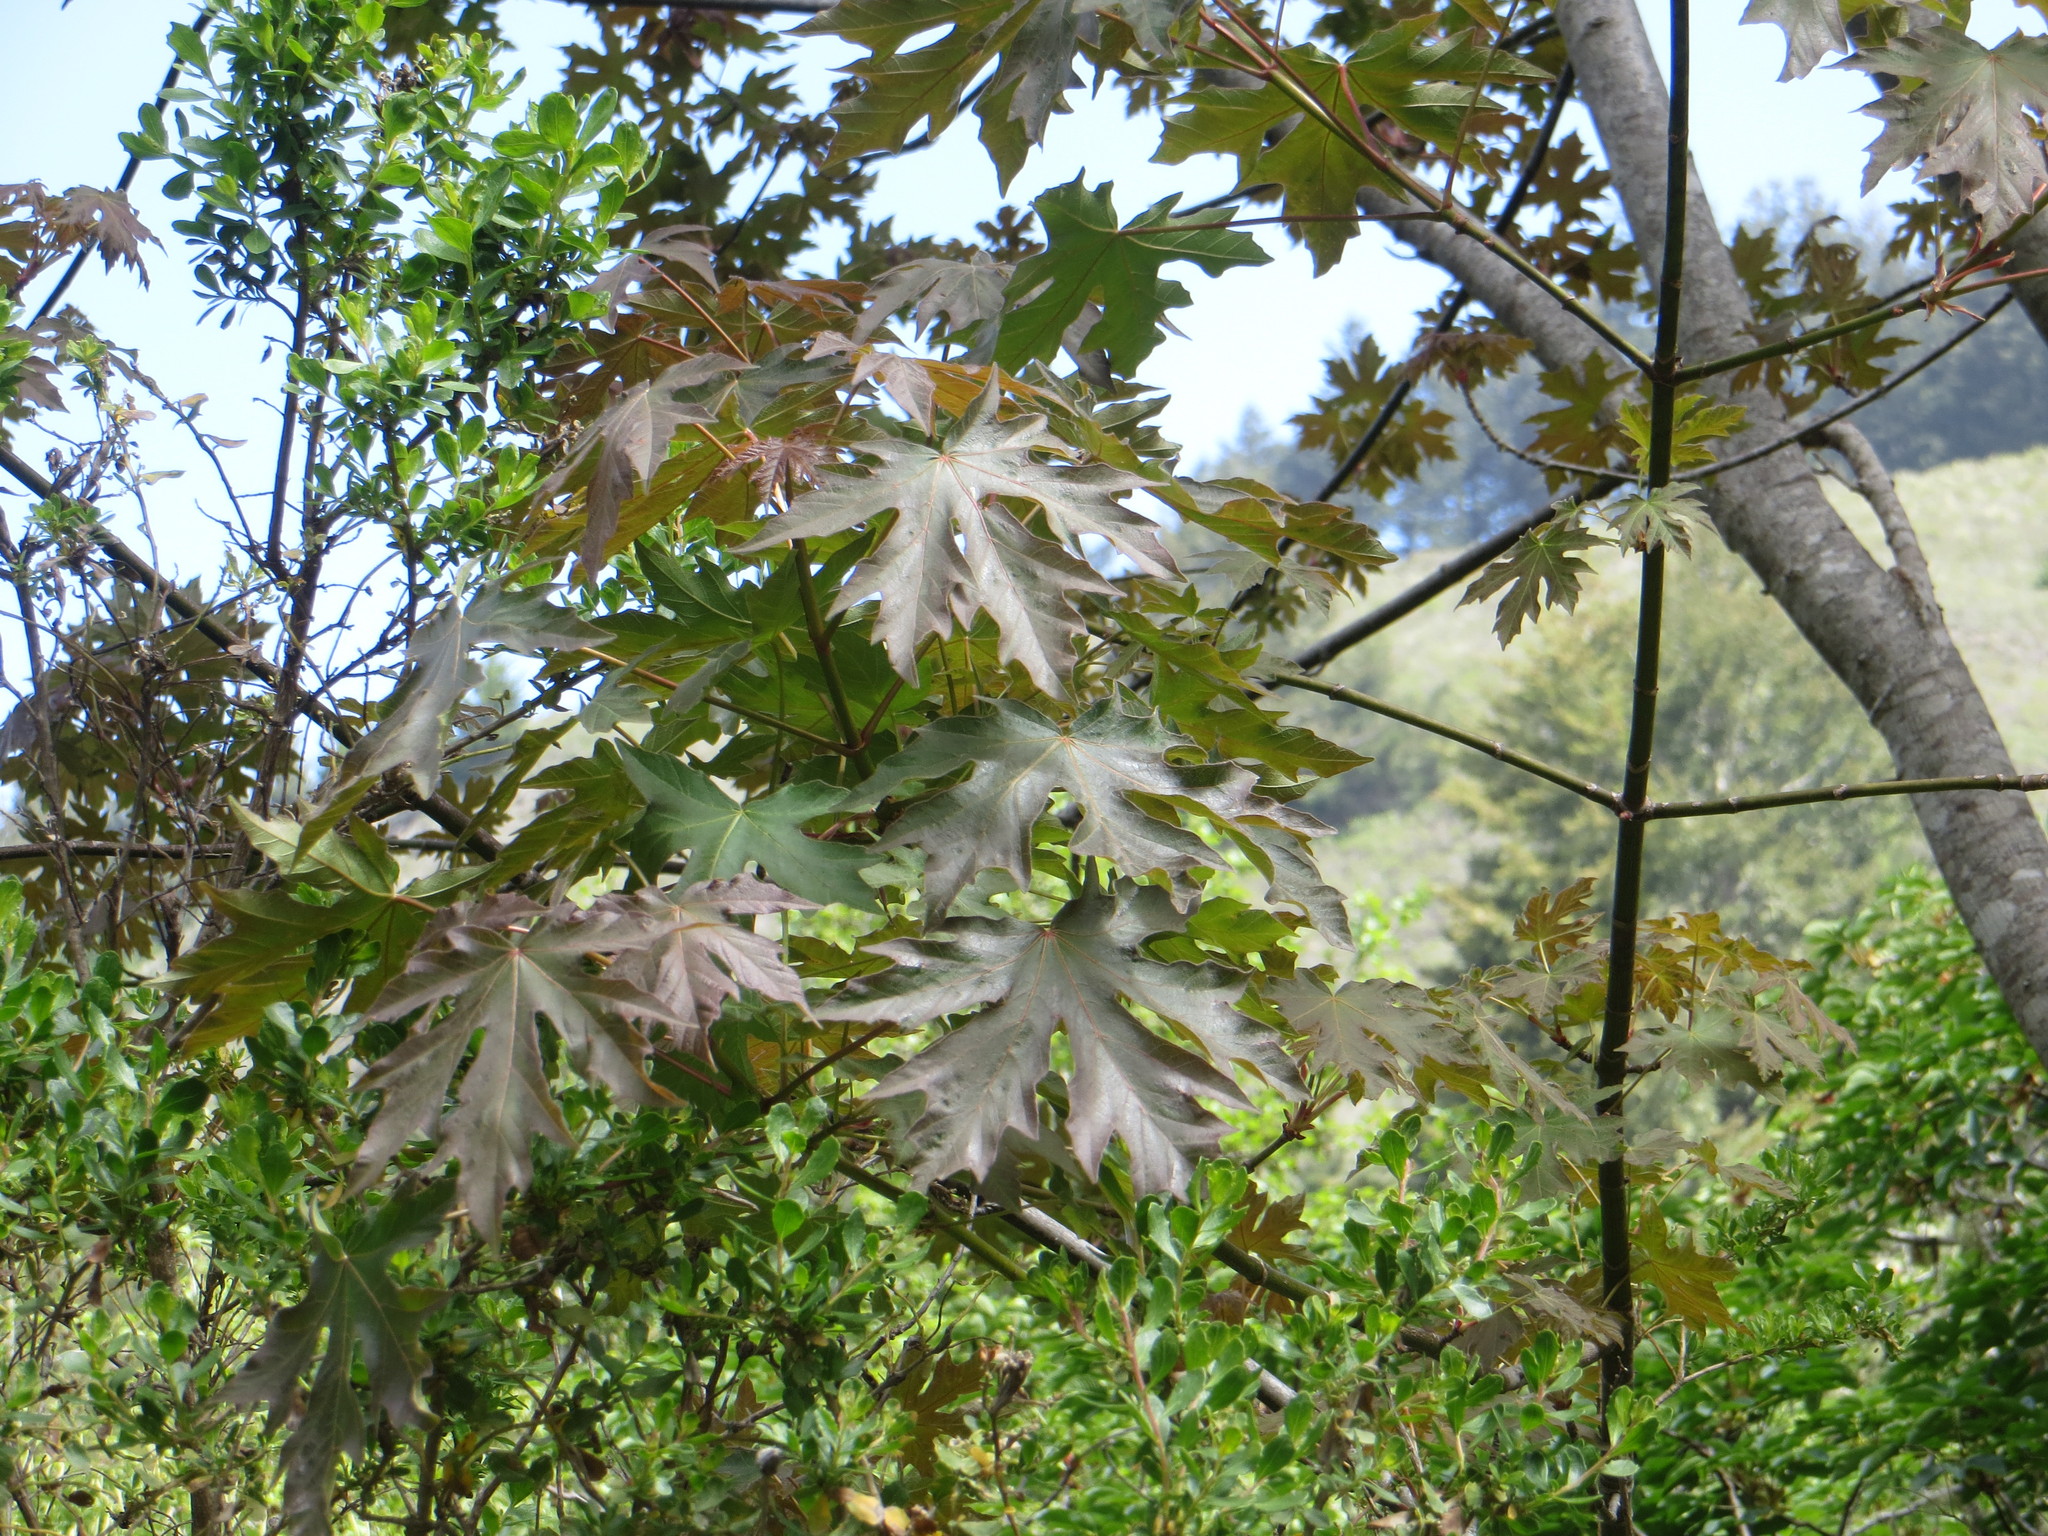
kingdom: Plantae
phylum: Tracheophyta
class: Magnoliopsida
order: Sapindales
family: Sapindaceae
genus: Acer
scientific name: Acer macrophyllum
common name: Oregon maple
